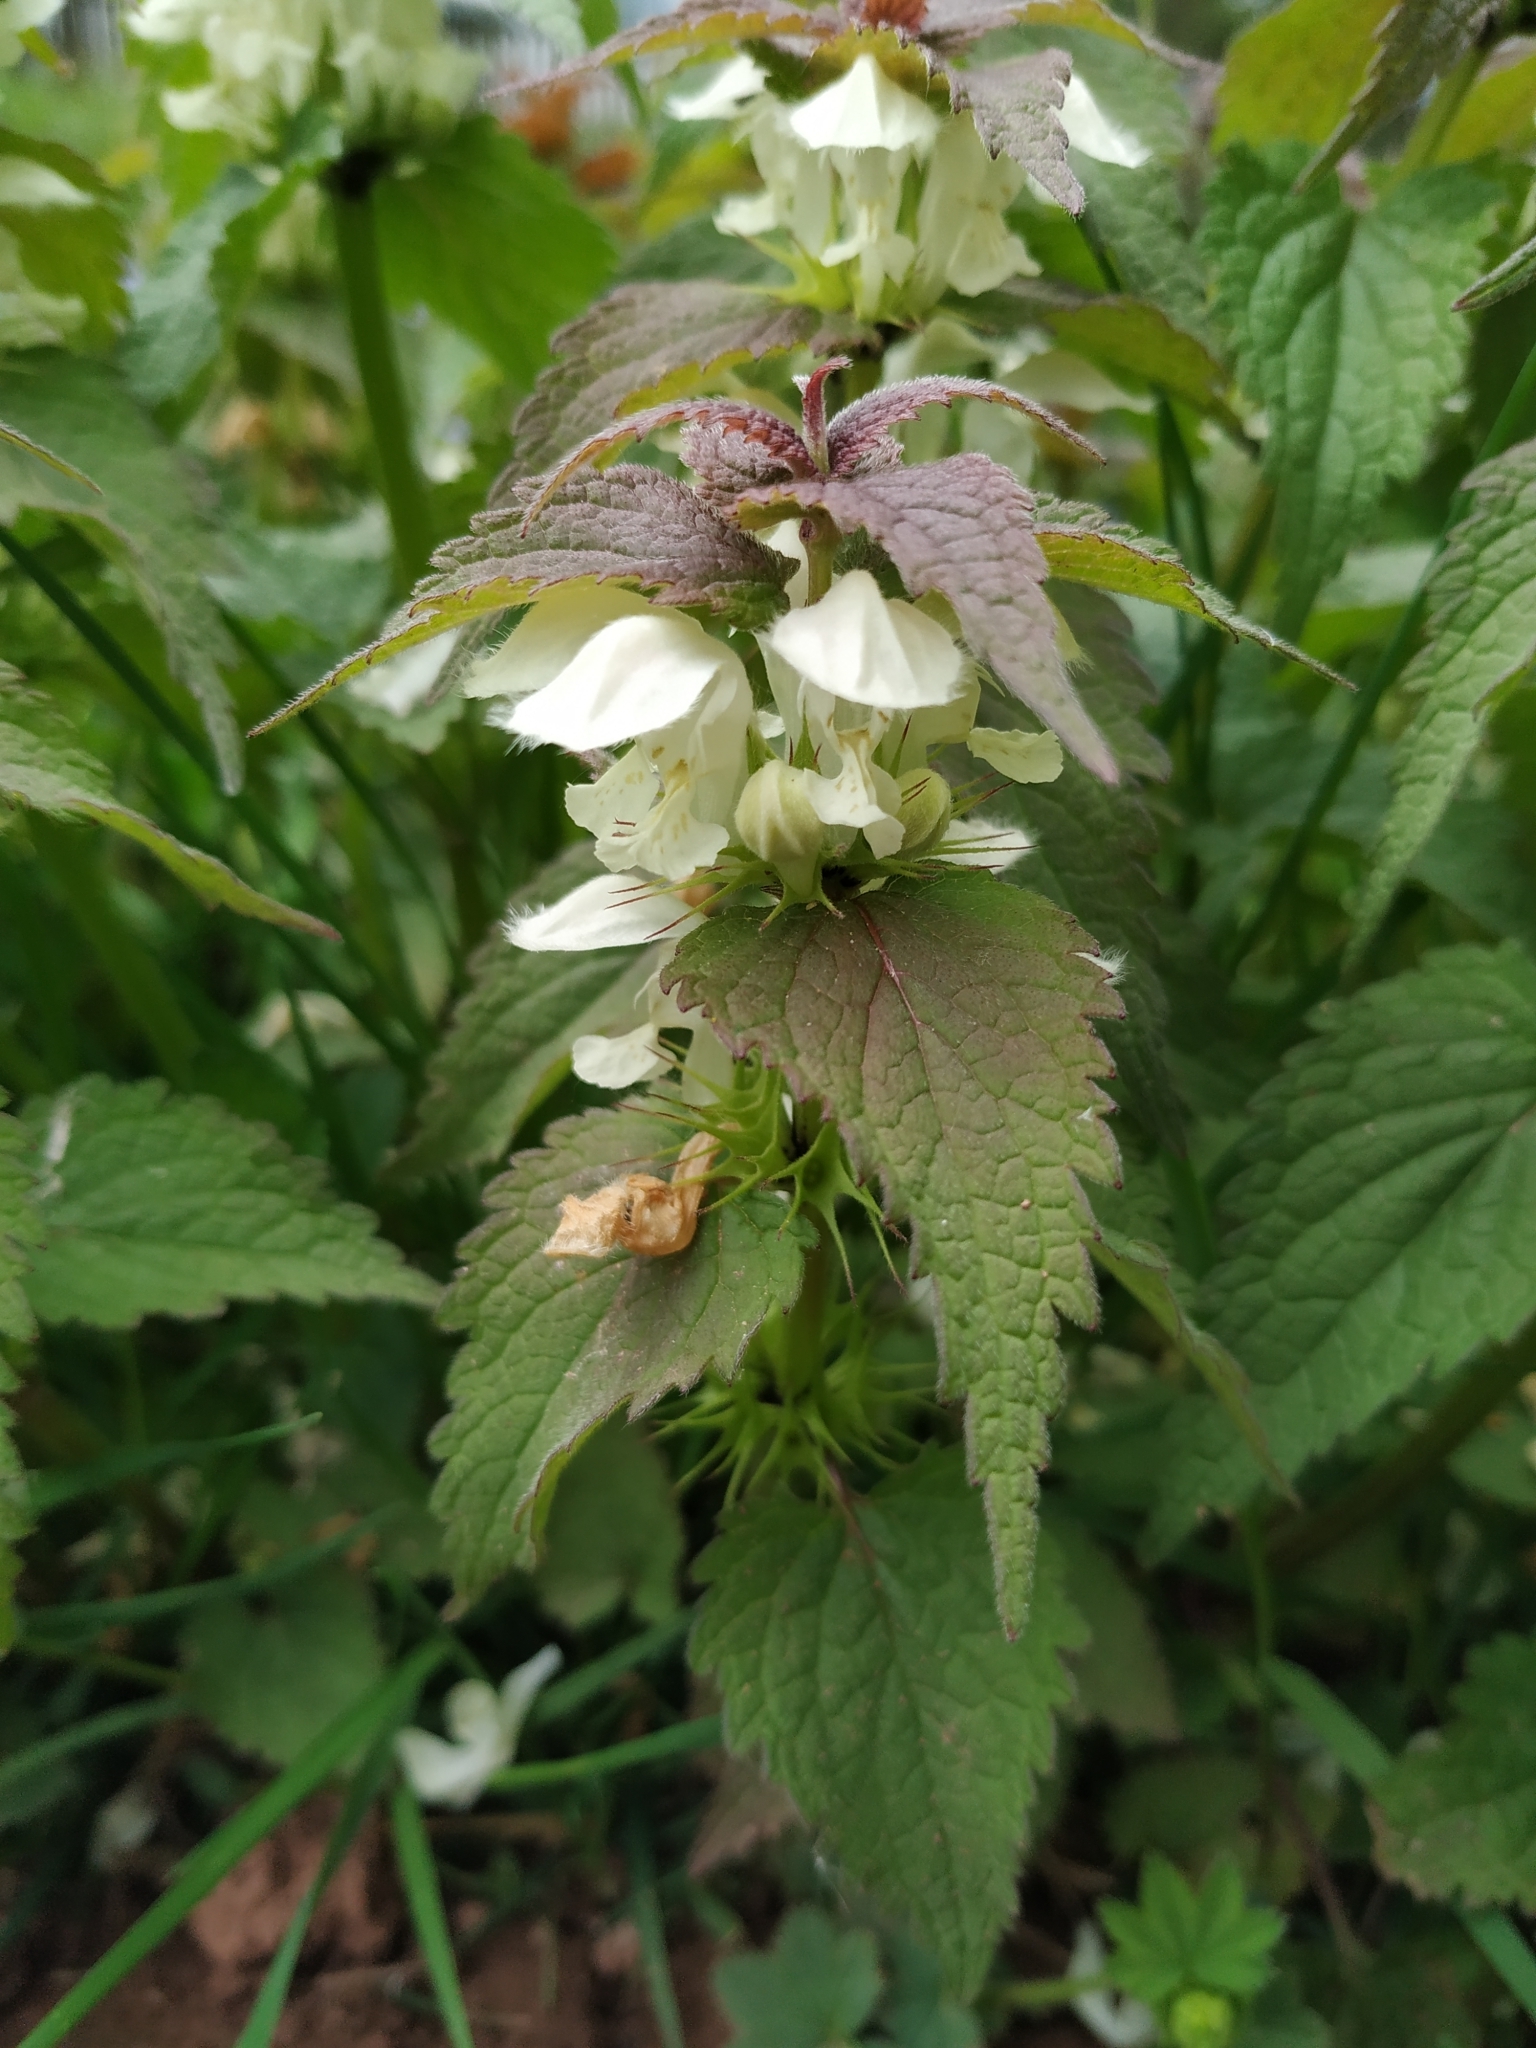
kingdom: Plantae
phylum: Tracheophyta
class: Magnoliopsida
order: Lamiales
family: Lamiaceae
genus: Lamium
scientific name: Lamium album
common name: White dead-nettle
